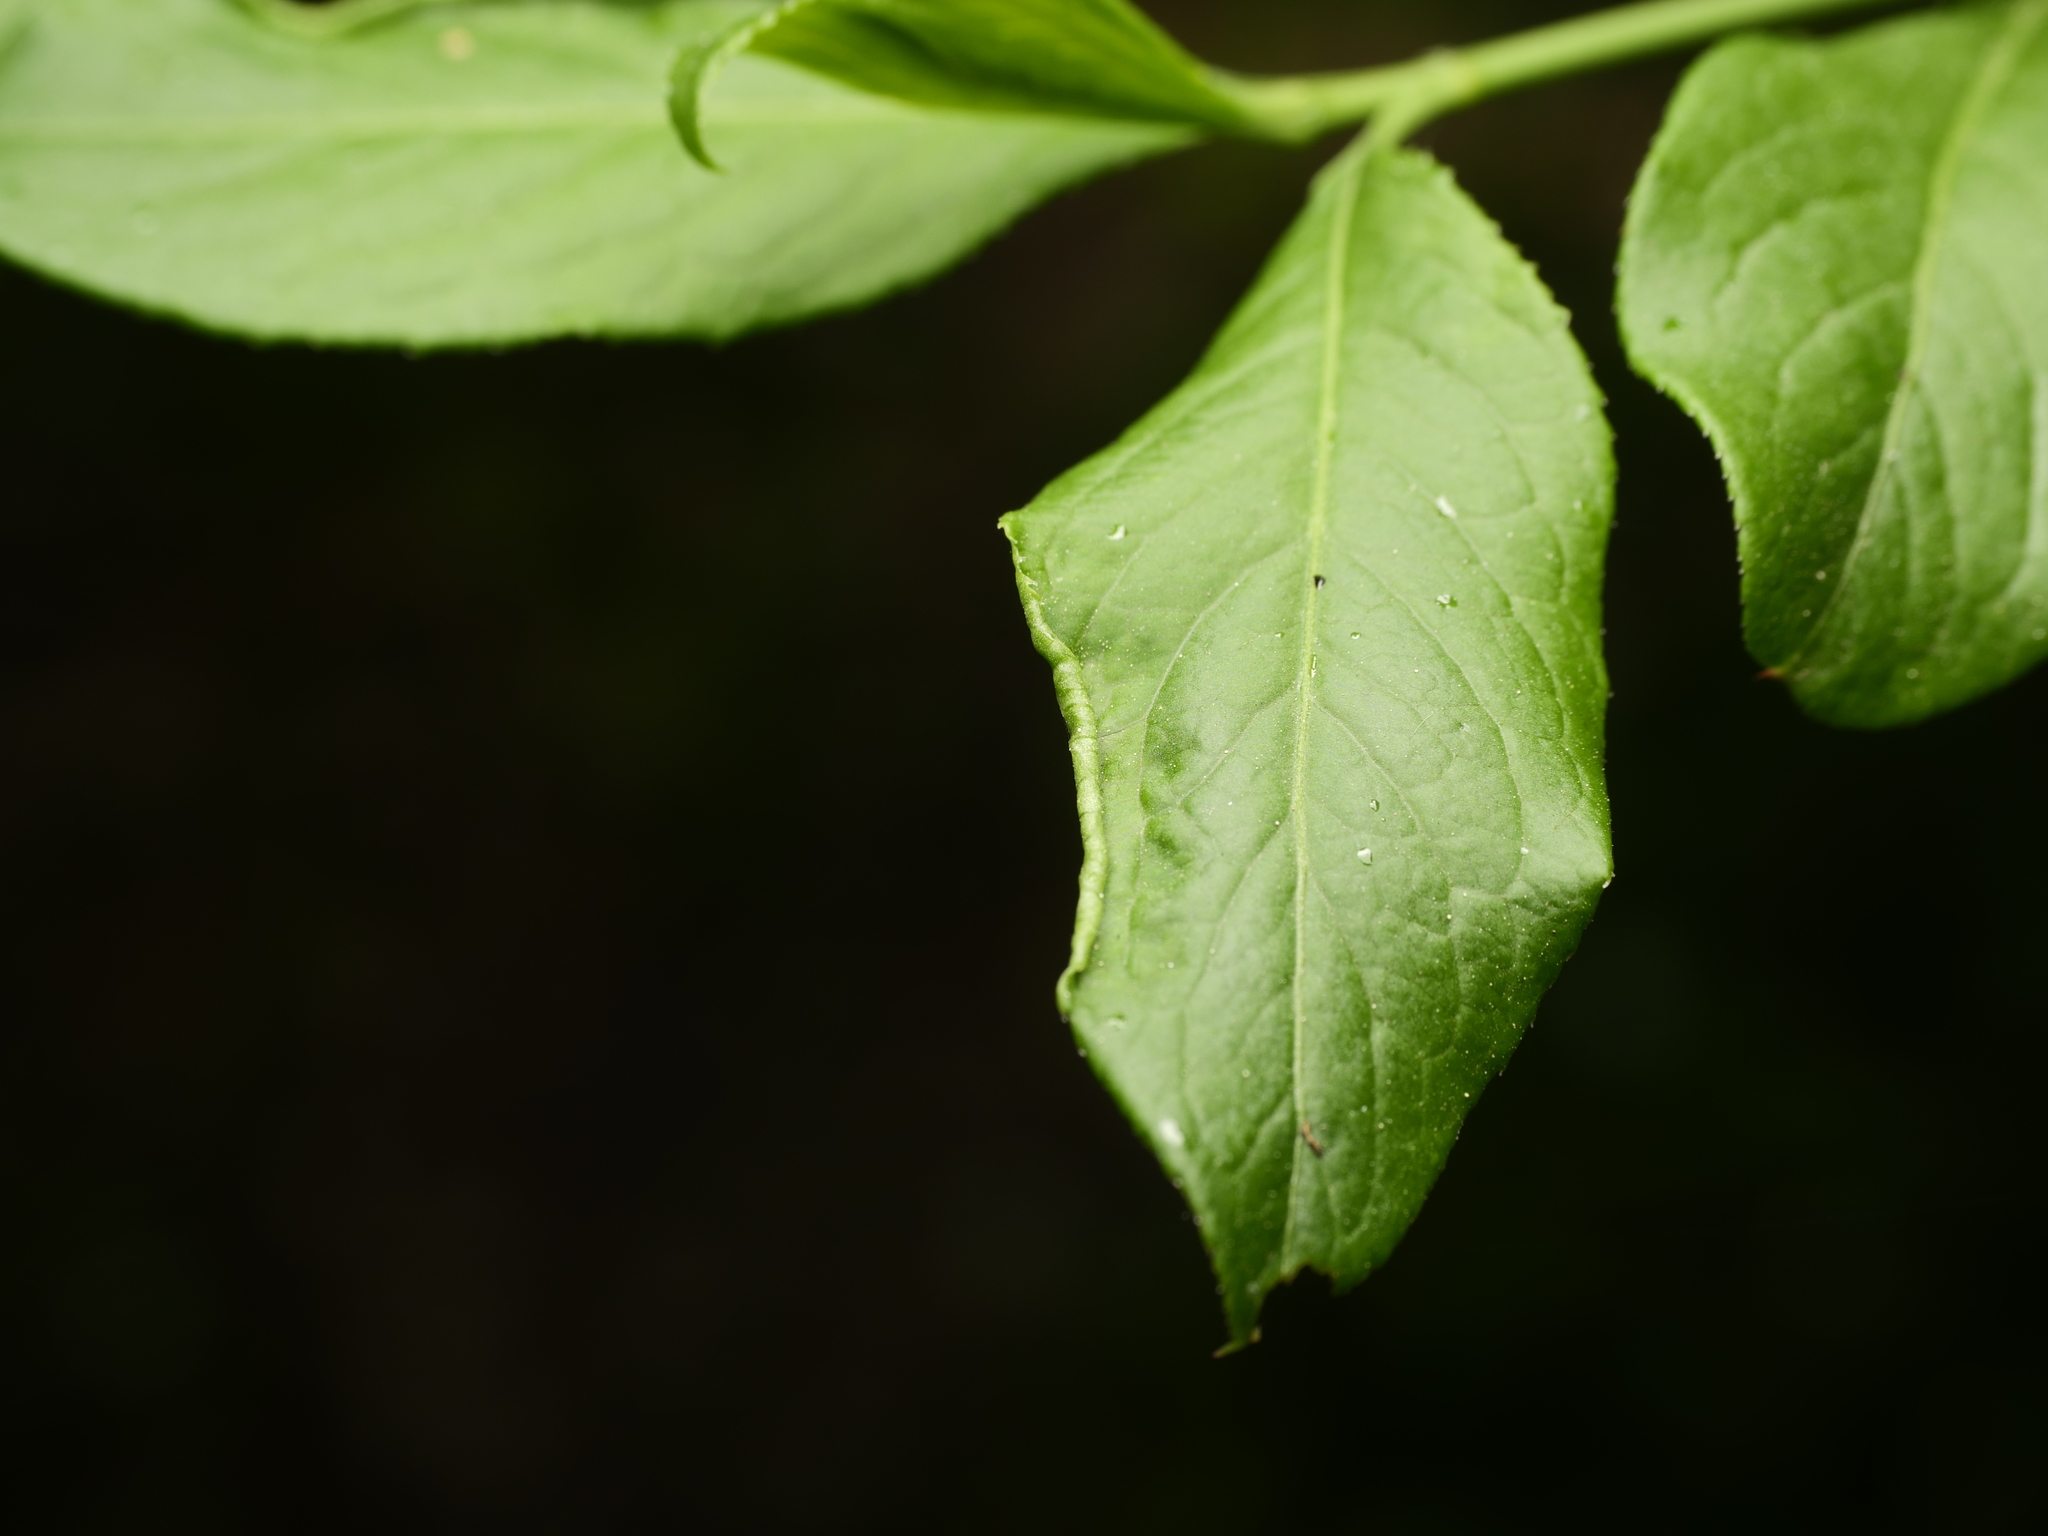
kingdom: Animalia
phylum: Arthropoda
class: Arachnida
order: Trombidiformes
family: Eriophyidae
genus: Stenacis
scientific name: Stenacis evonymi
